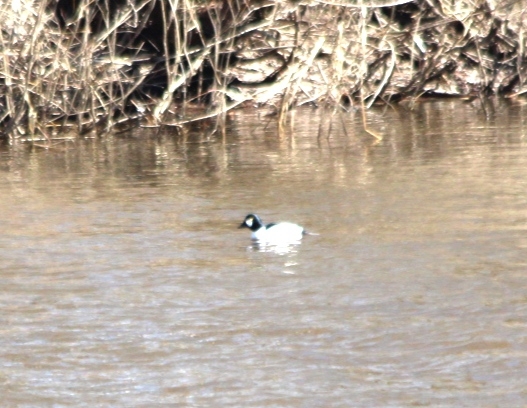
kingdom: Animalia
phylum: Chordata
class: Aves
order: Anseriformes
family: Anatidae
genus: Bucephala
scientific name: Bucephala clangula
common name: Common goldeneye
